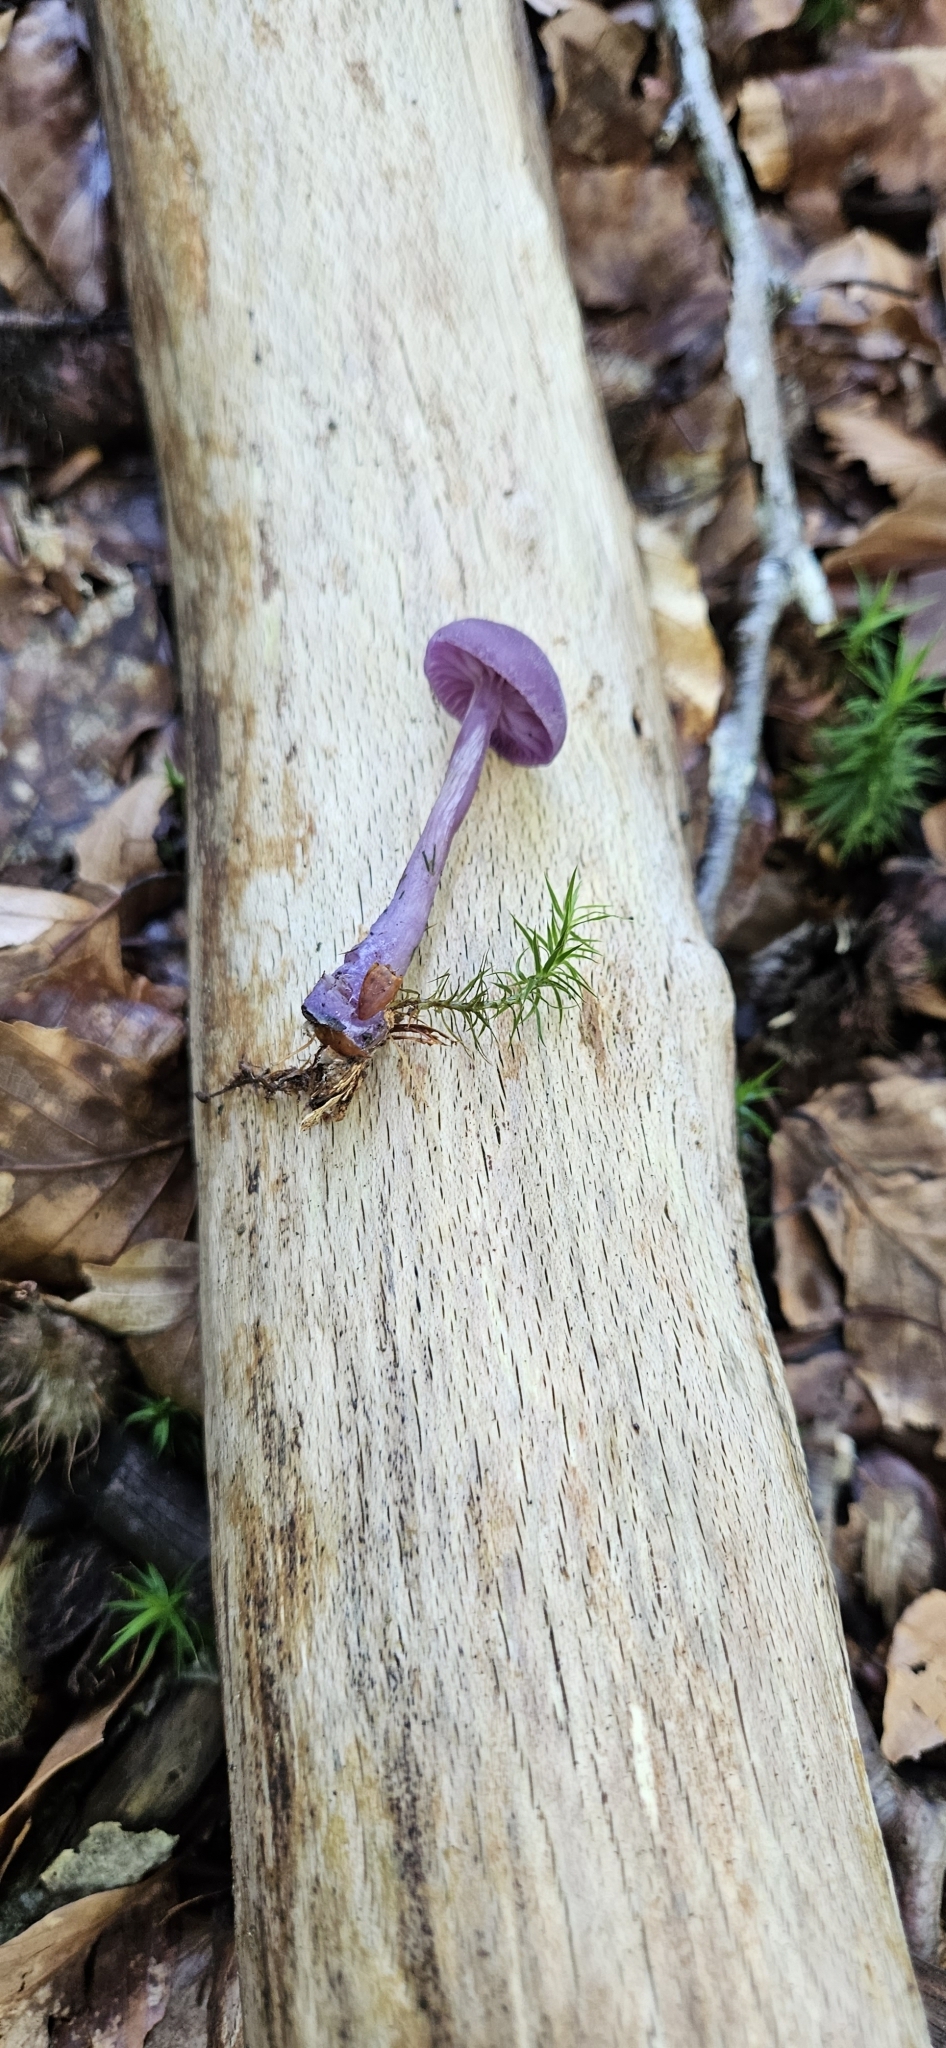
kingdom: Fungi
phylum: Basidiomycota
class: Agaricomycetes
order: Agaricales
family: Hydnangiaceae
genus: Laccaria
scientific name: Laccaria amethystina
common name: Amethyst deceiver
